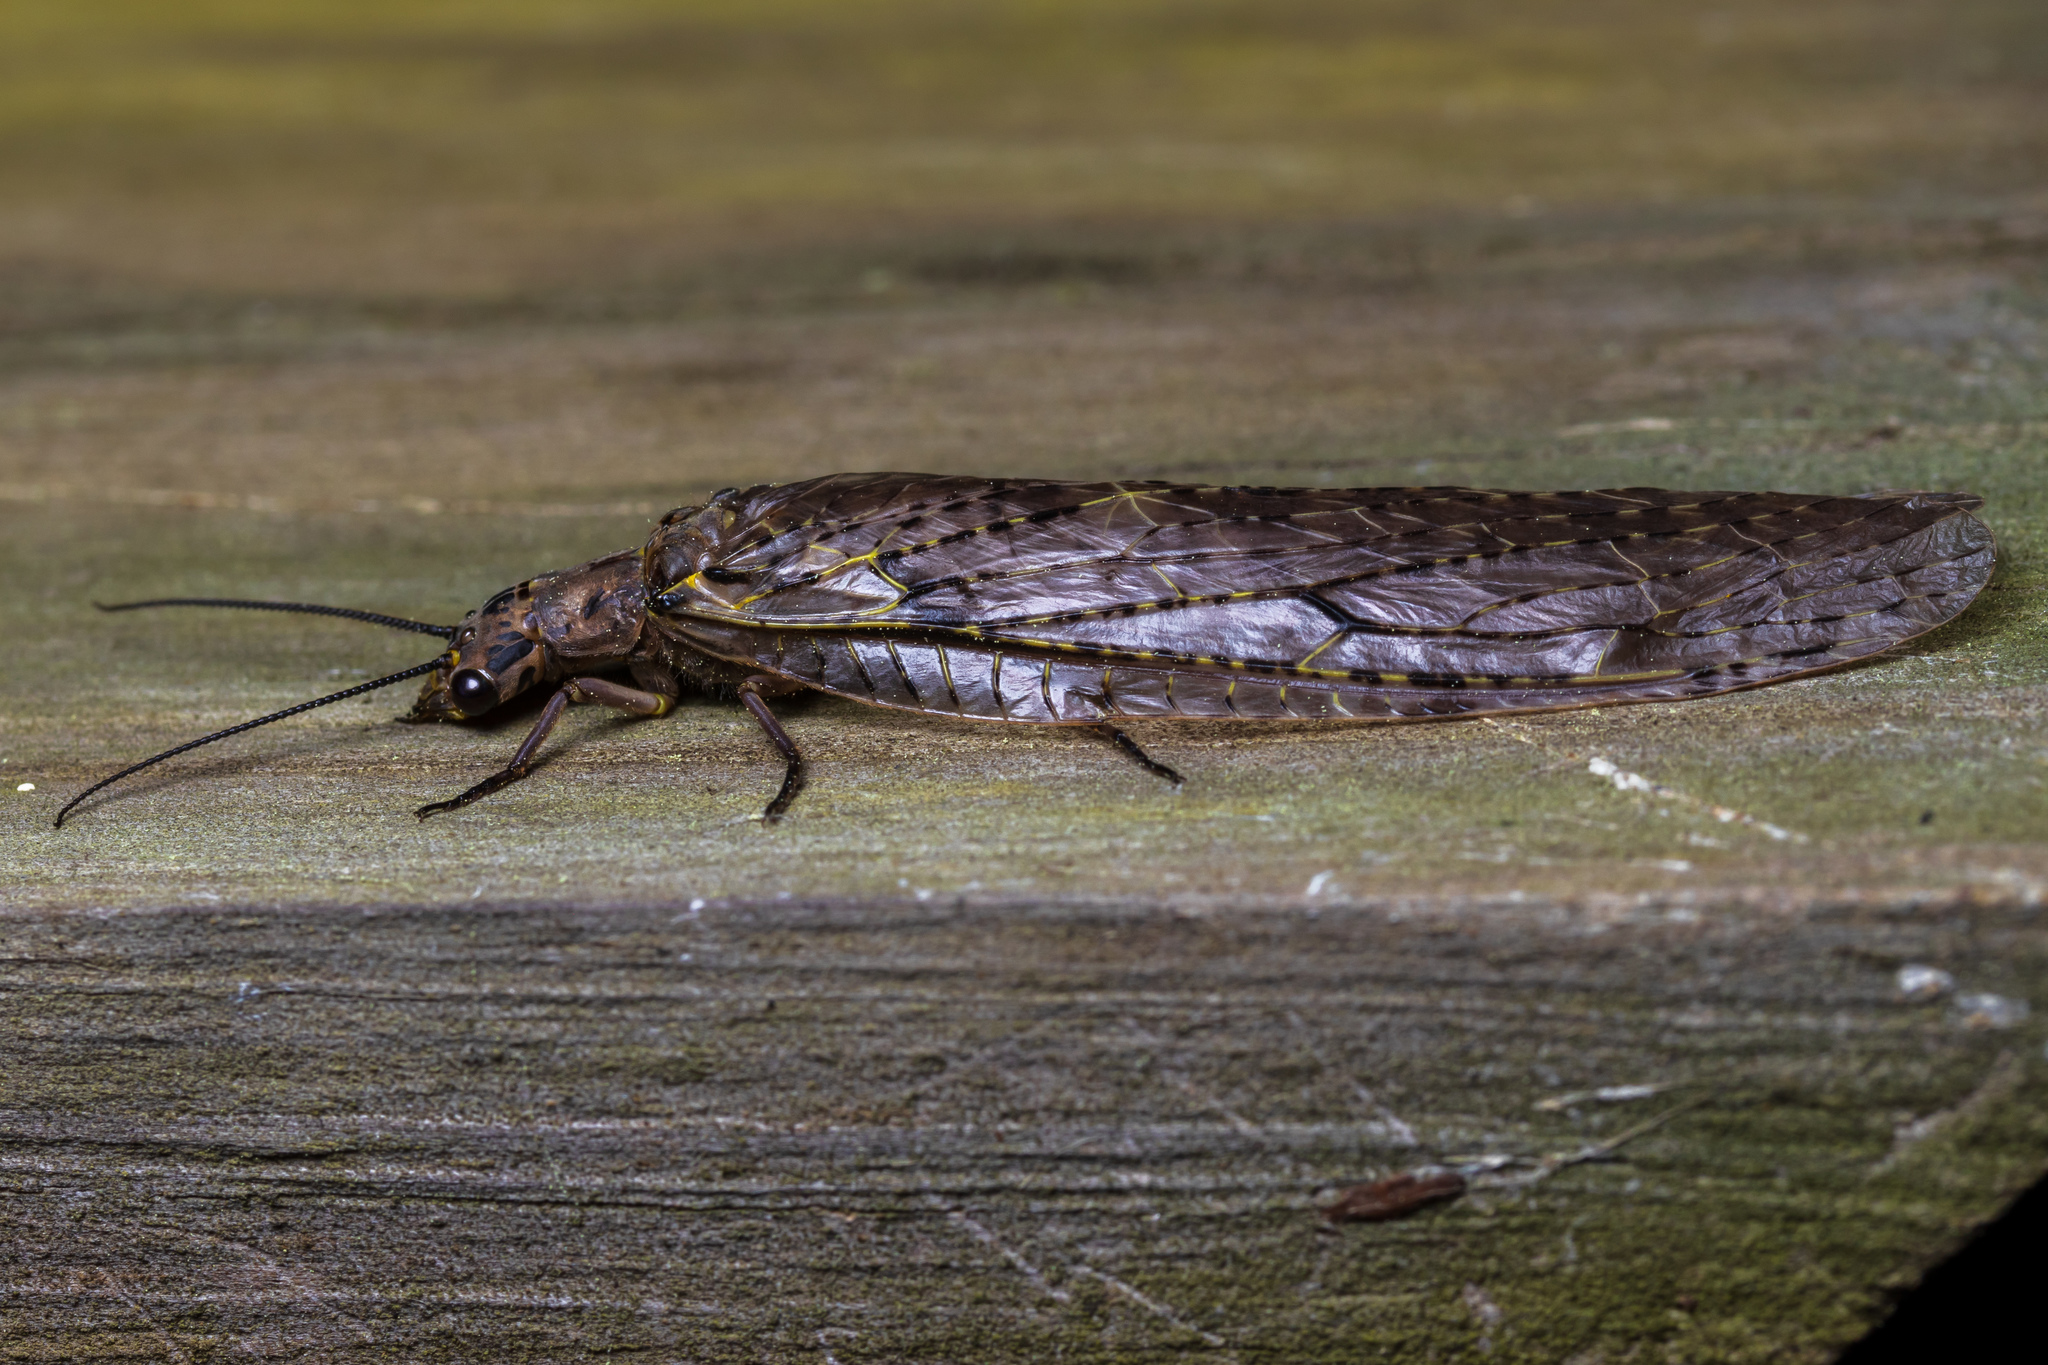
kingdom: Animalia
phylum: Arthropoda
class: Insecta
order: Megaloptera
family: Corydalidae
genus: Chauliodes
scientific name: Chauliodes rastricornis
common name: Spring fishfly
